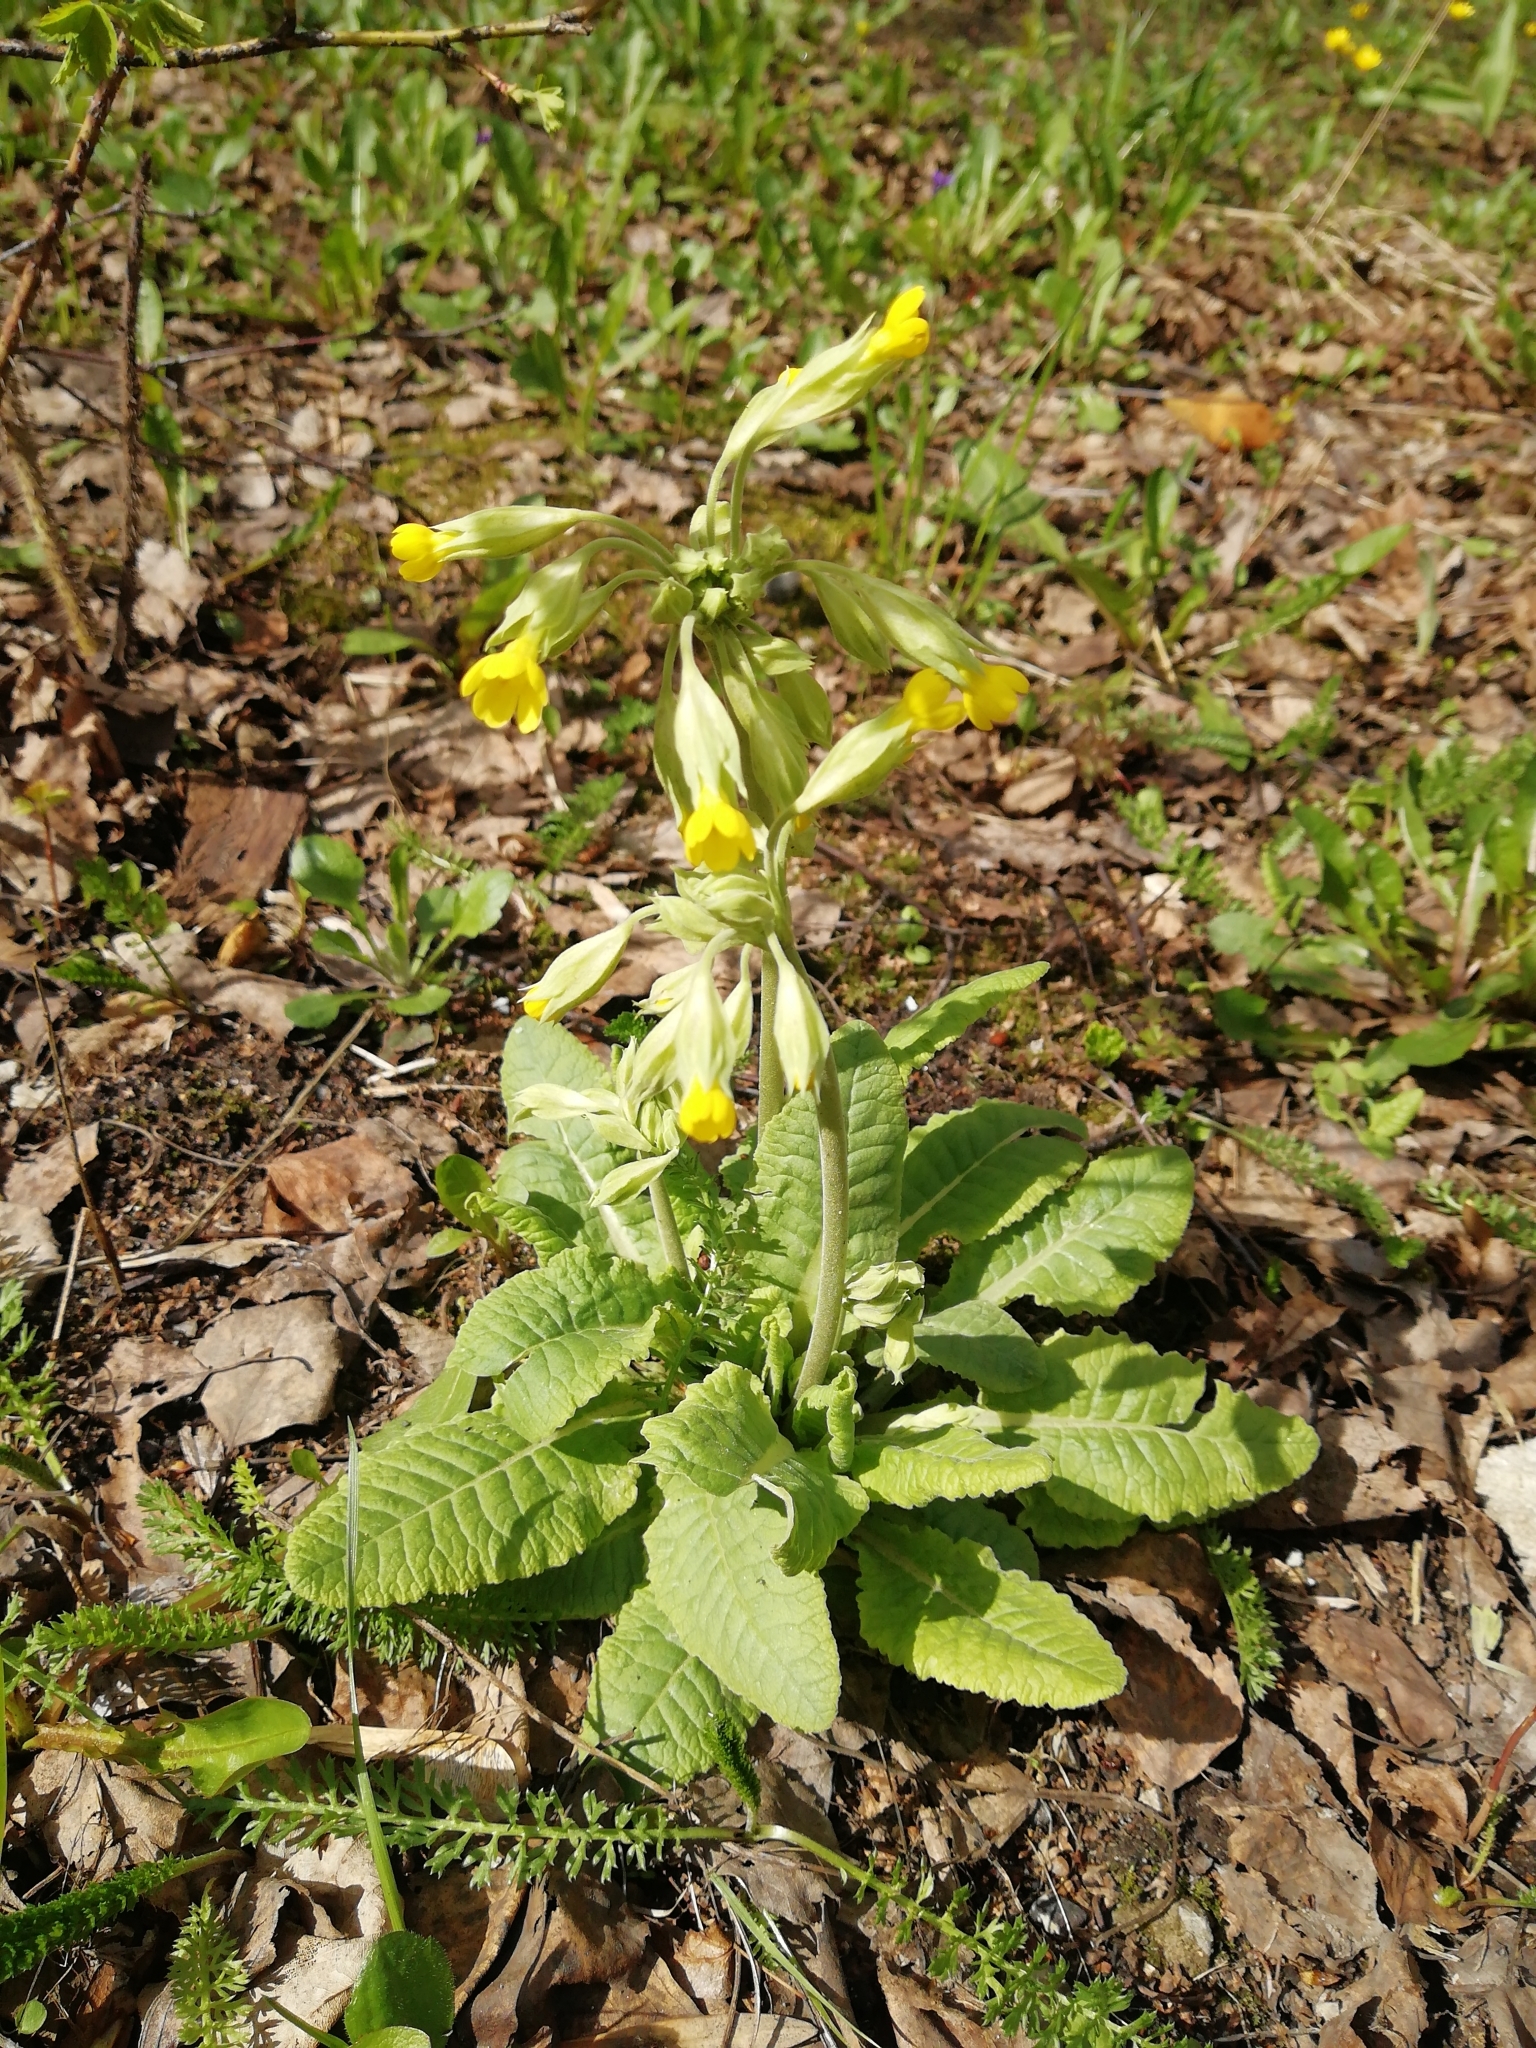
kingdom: Plantae
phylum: Tracheophyta
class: Magnoliopsida
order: Ericales
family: Primulaceae
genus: Primula
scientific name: Primula veris
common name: Cowslip
